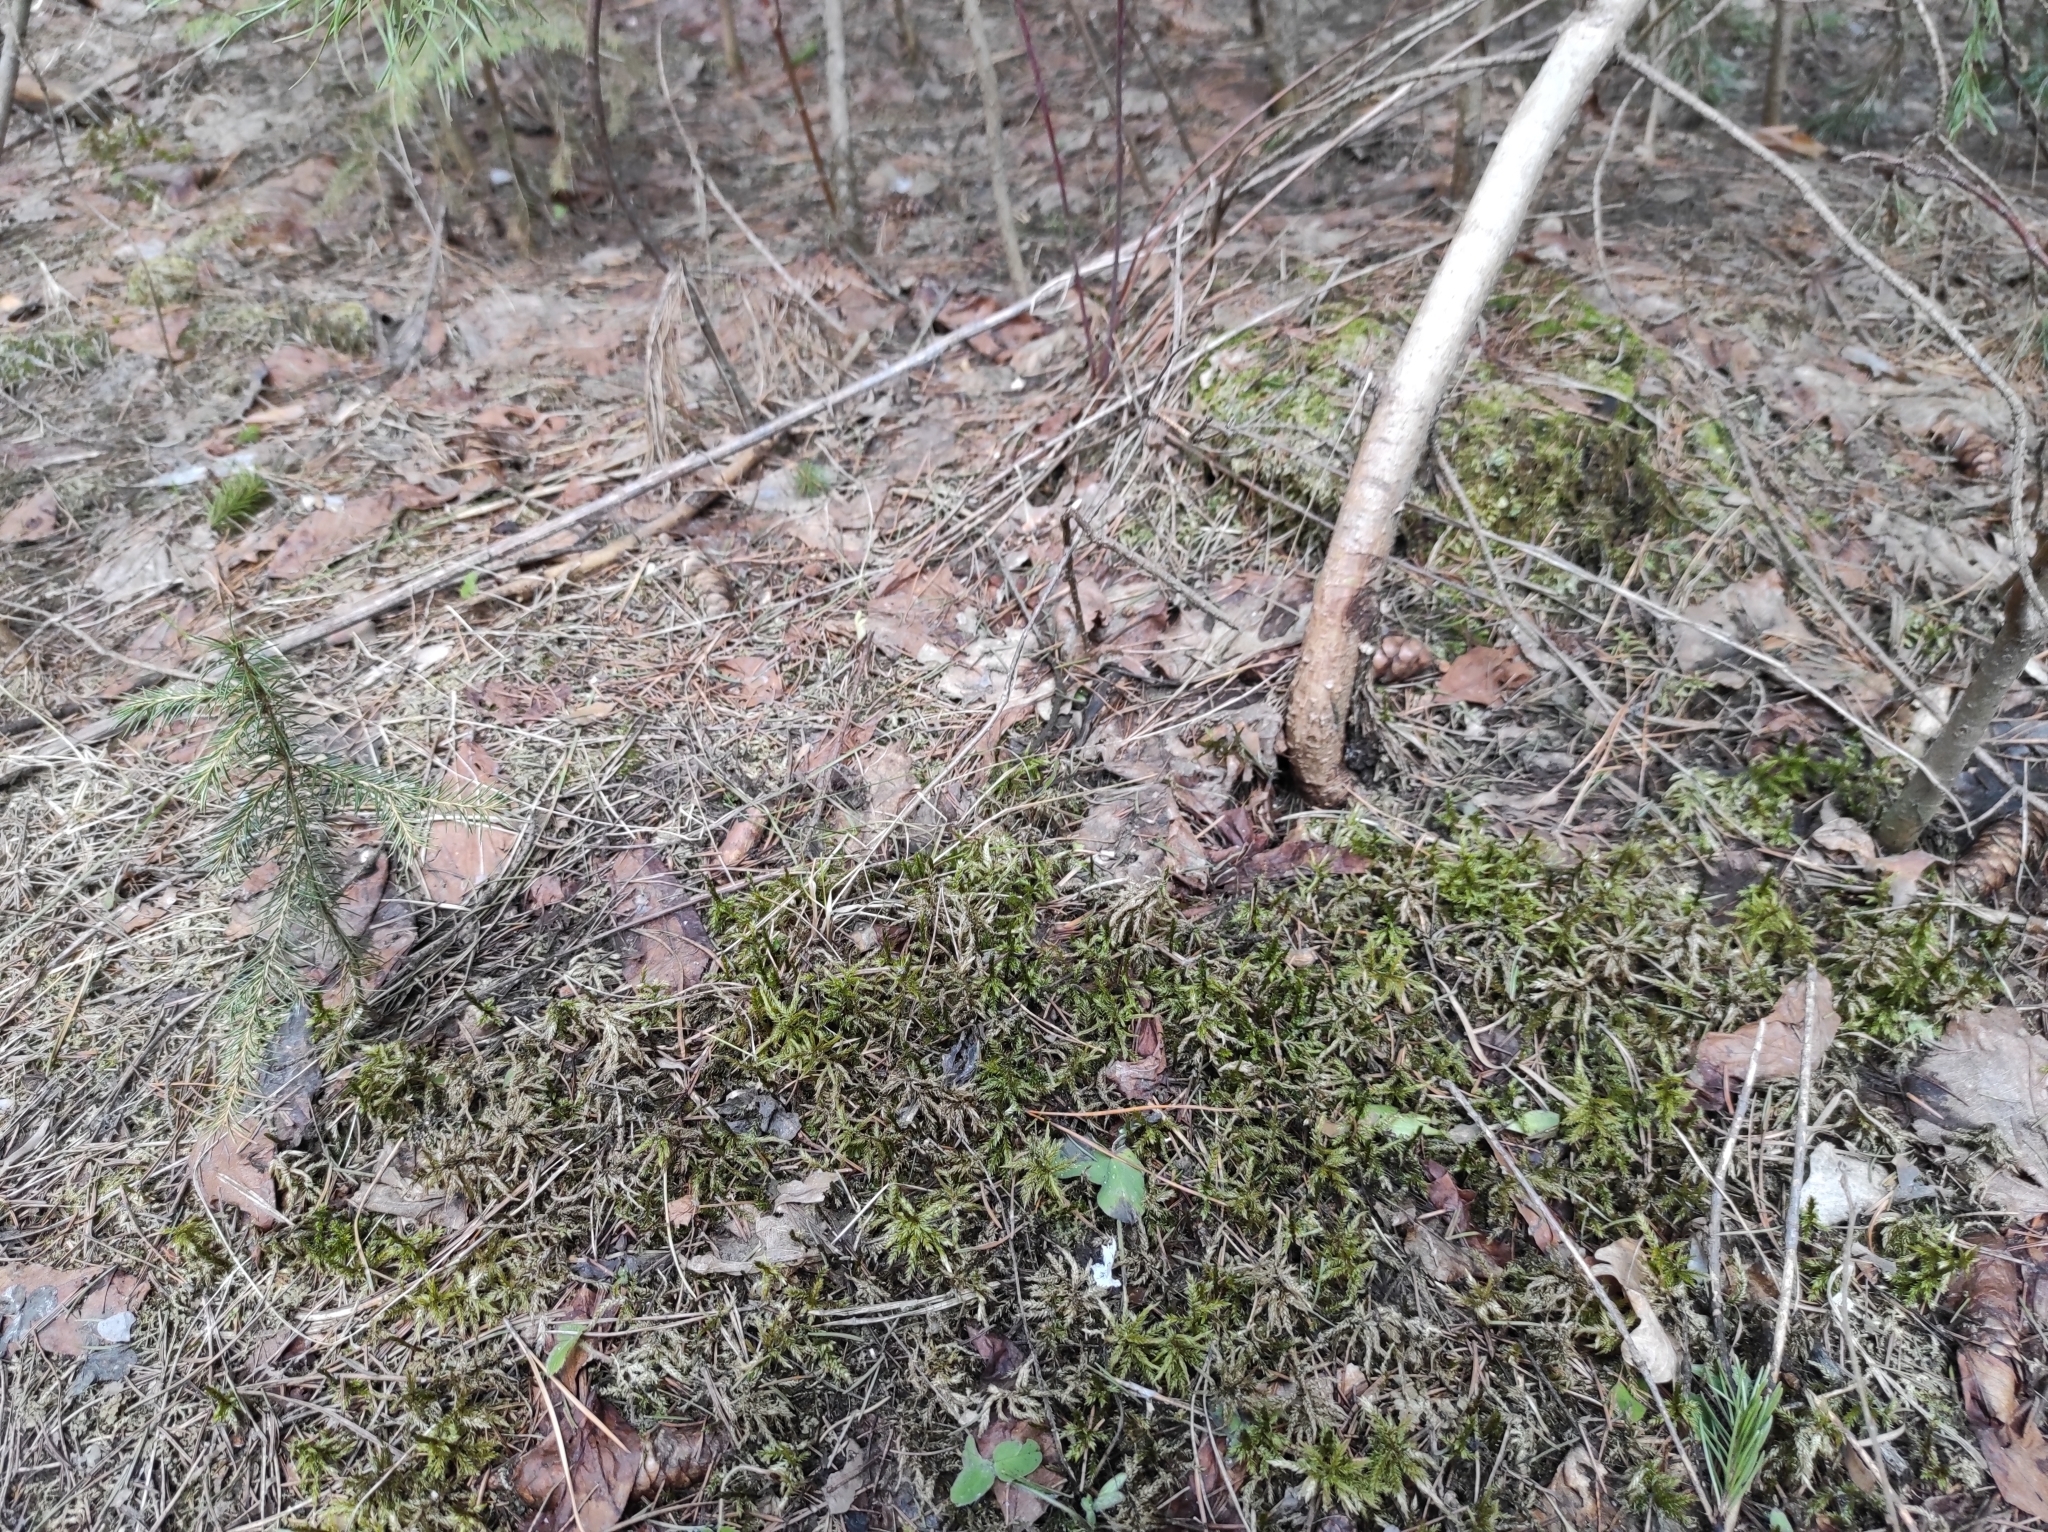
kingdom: Plantae
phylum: Bryophyta
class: Bryopsida
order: Hypnales
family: Climaciaceae
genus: Climacium
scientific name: Climacium dendroides
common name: Northern tree moss
